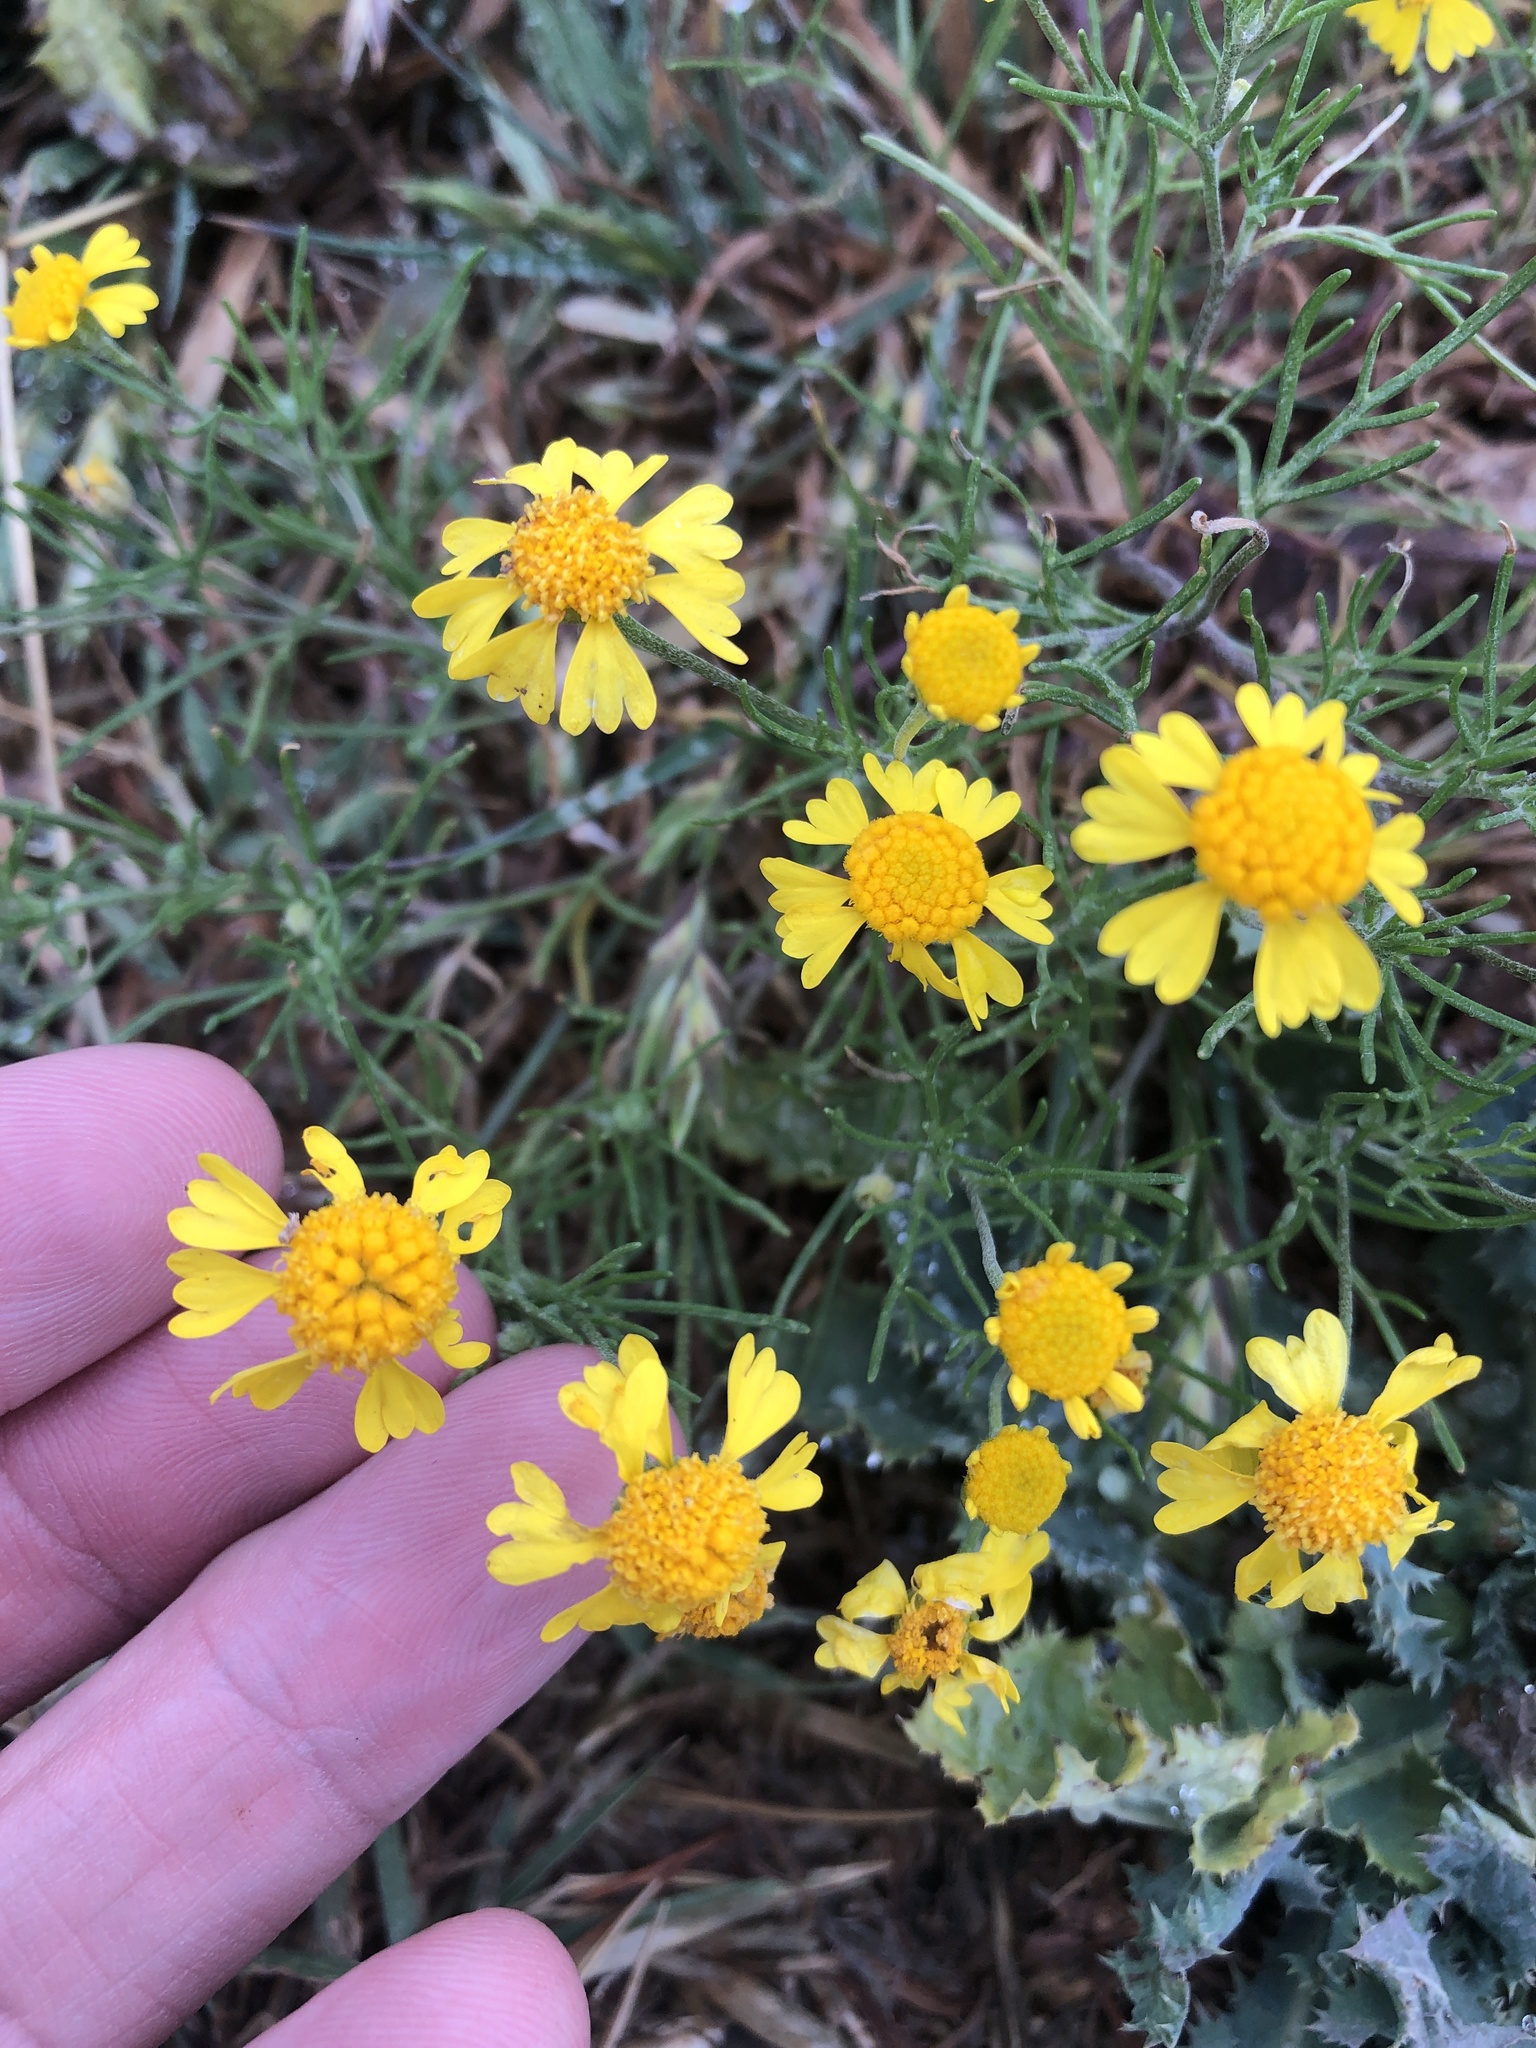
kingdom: Plantae
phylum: Tracheophyta
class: Magnoliopsida
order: Asterales
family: Asteraceae
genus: Hymenoxys
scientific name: Hymenoxys odorata
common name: Bitter rubberweed
